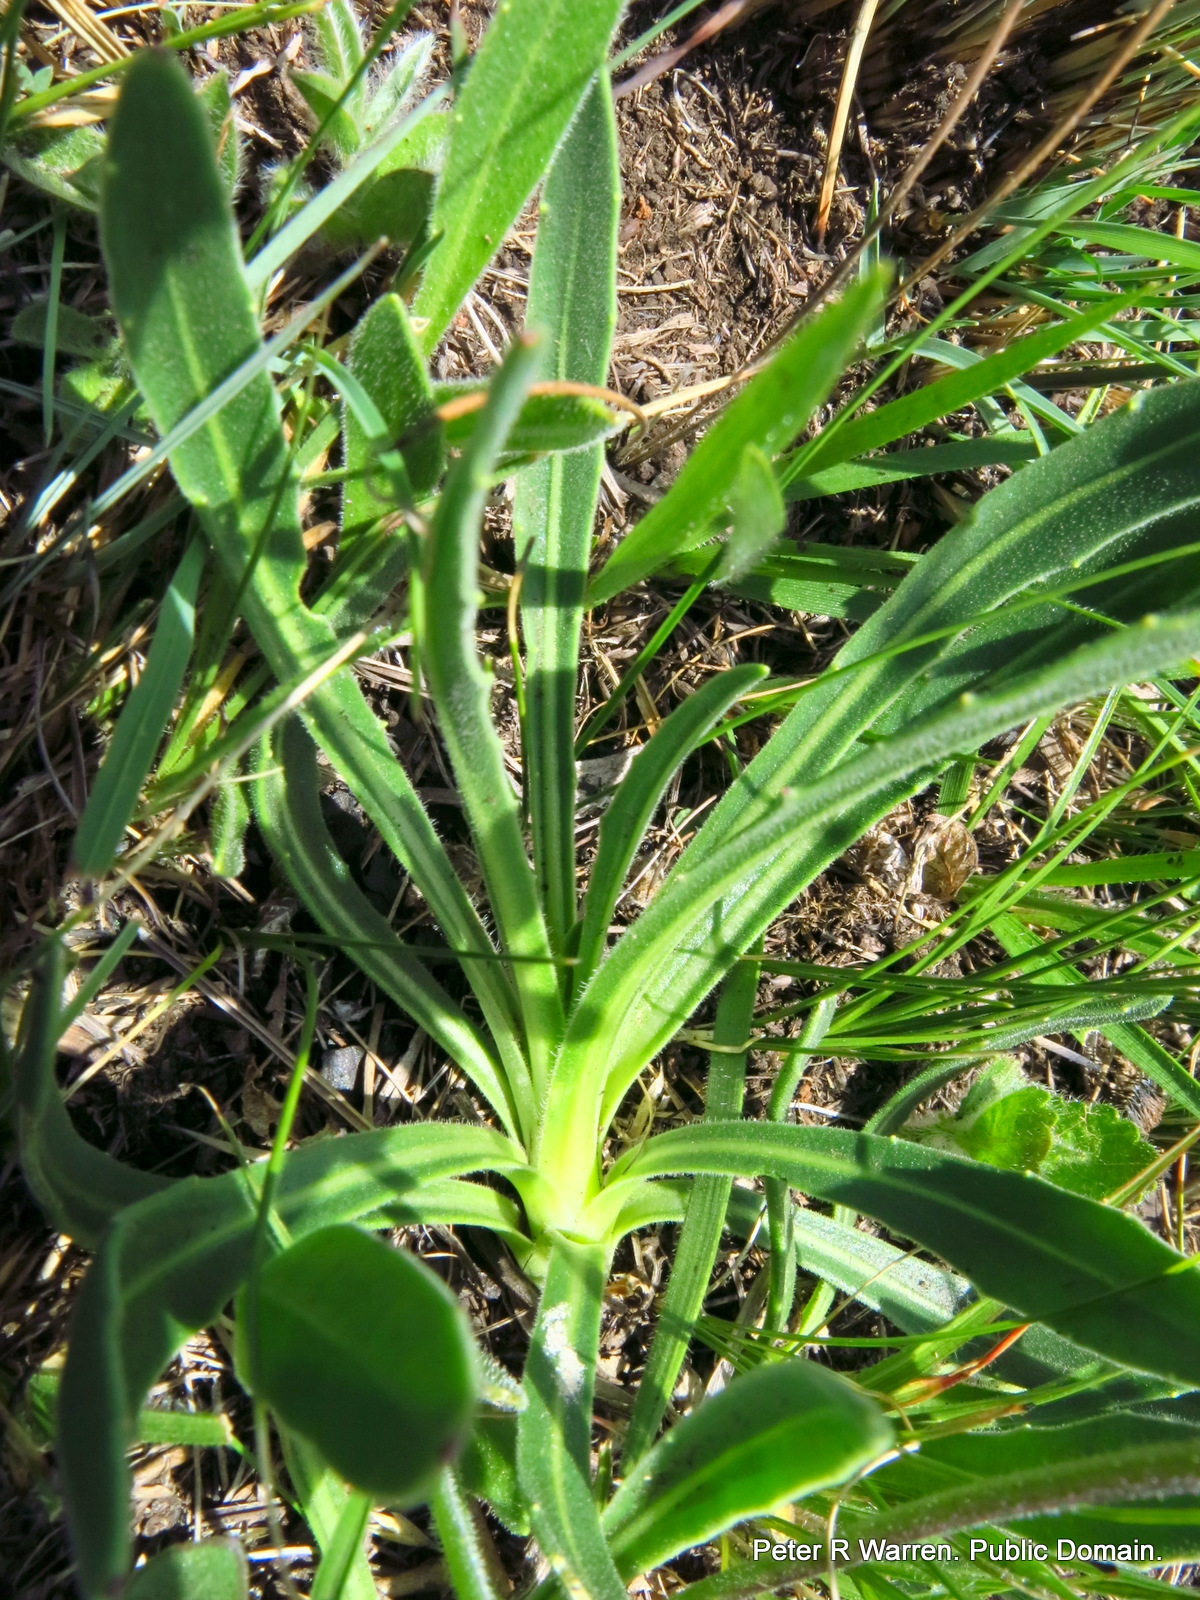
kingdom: Plantae
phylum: Tracheophyta
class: Magnoliopsida
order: Asterales
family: Asteraceae
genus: Dimorphotheca
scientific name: Dimorphotheca jucunda
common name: Osteospermum
